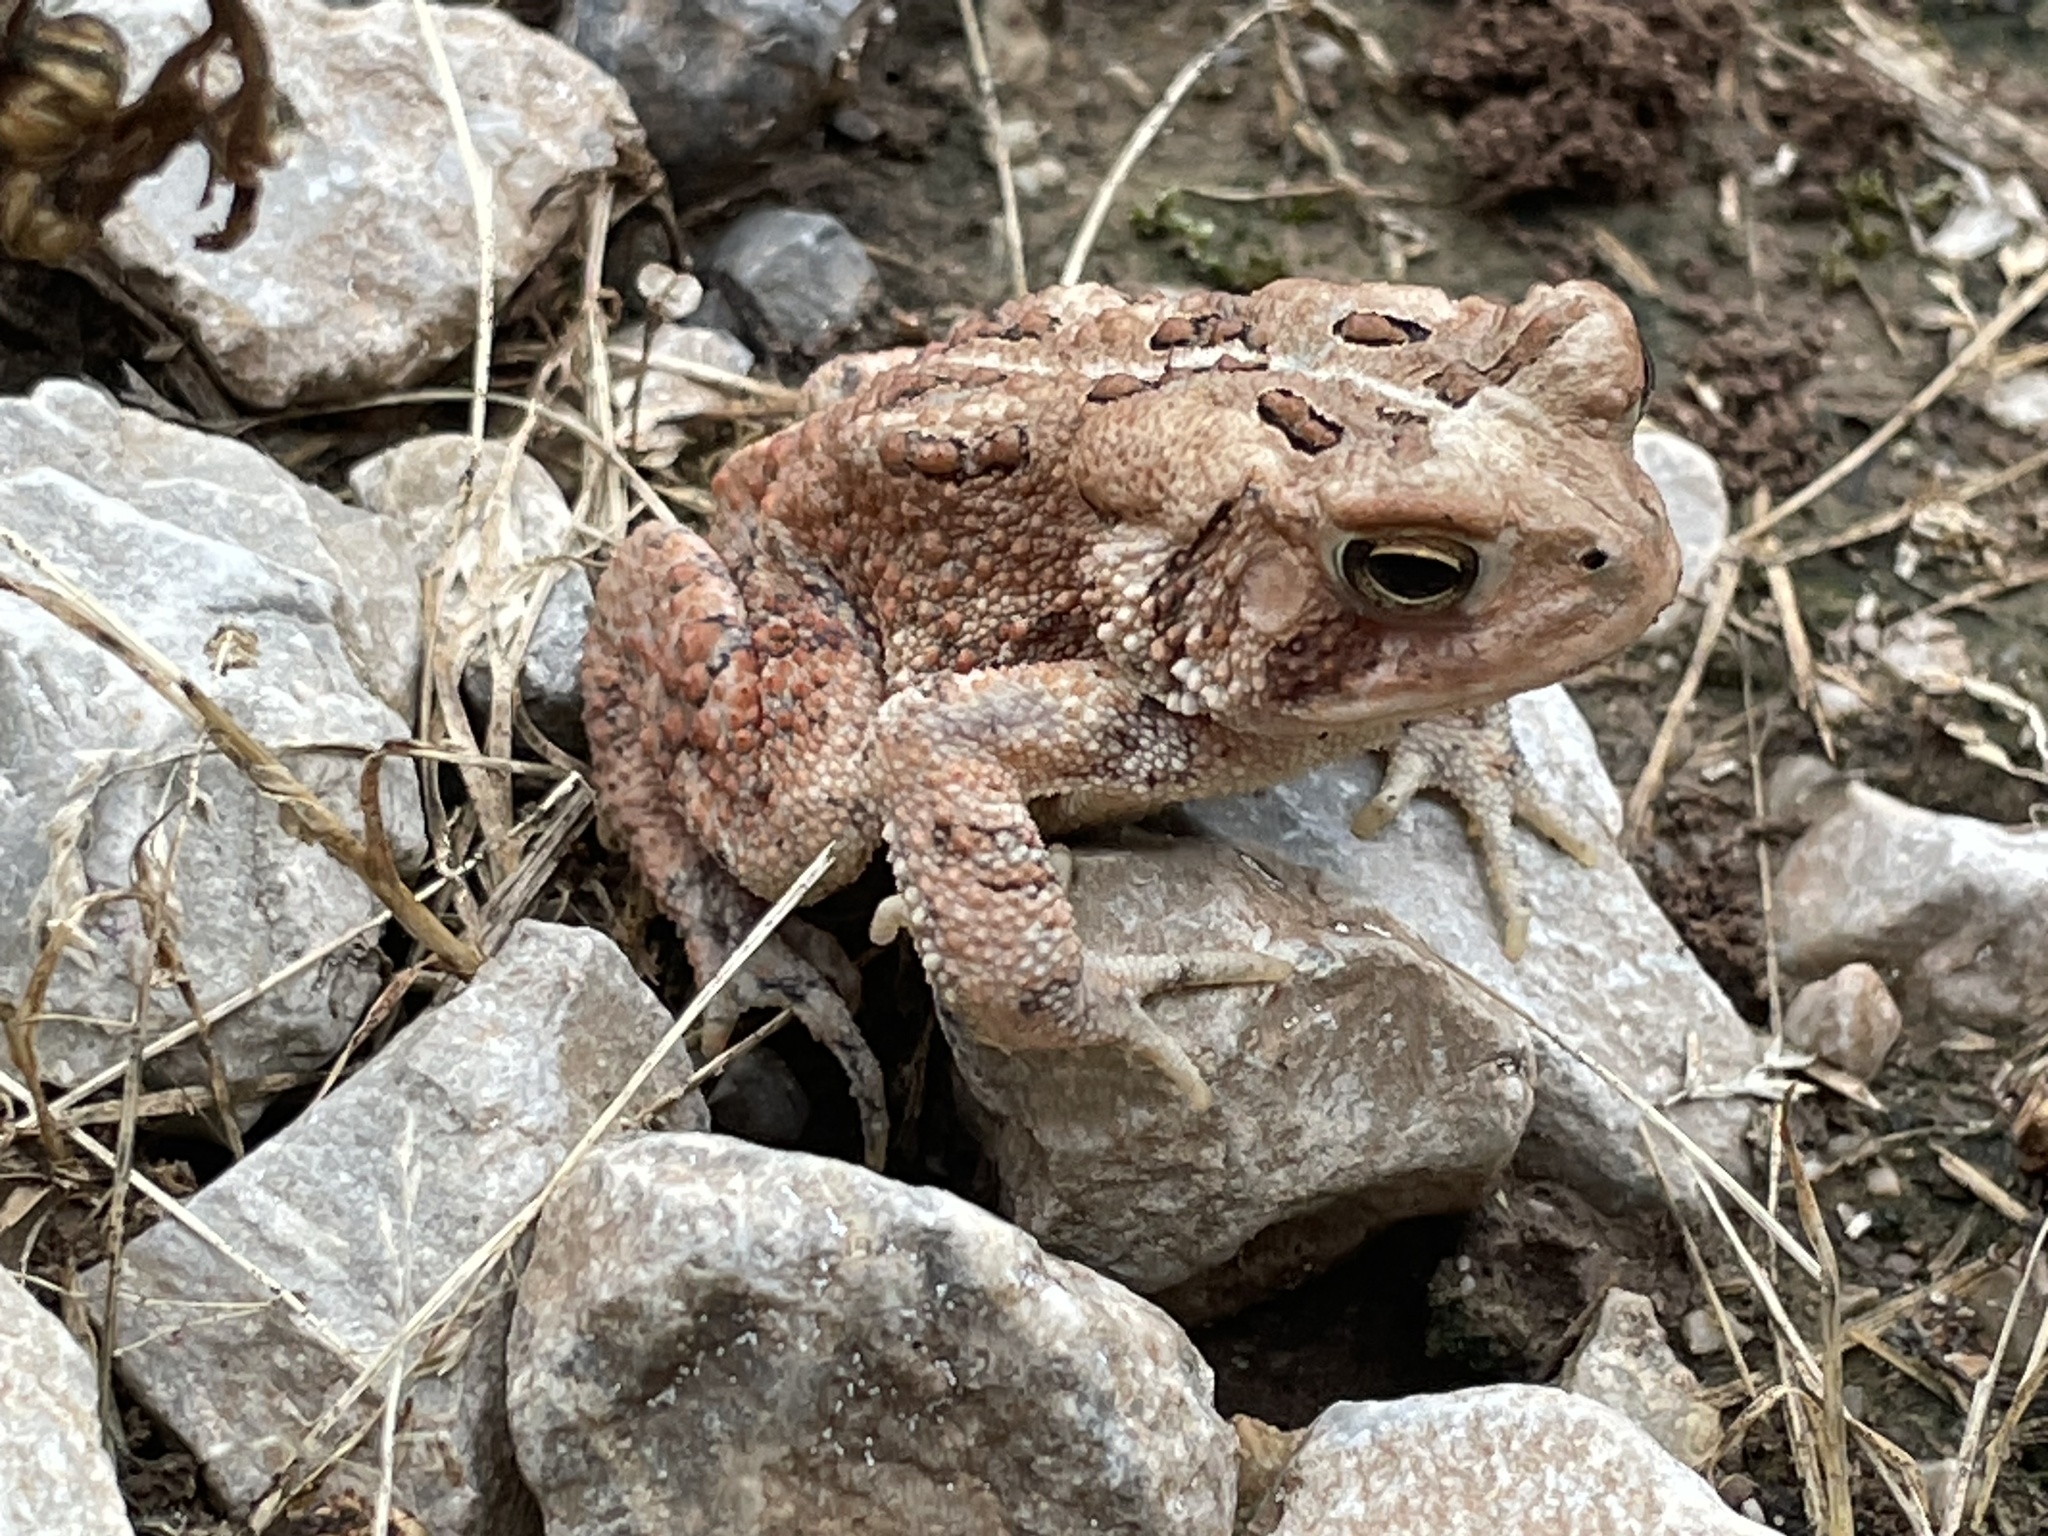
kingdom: Animalia
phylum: Chordata
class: Amphibia
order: Anura
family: Bufonidae
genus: Anaxyrus
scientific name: Anaxyrus americanus
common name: American toad
